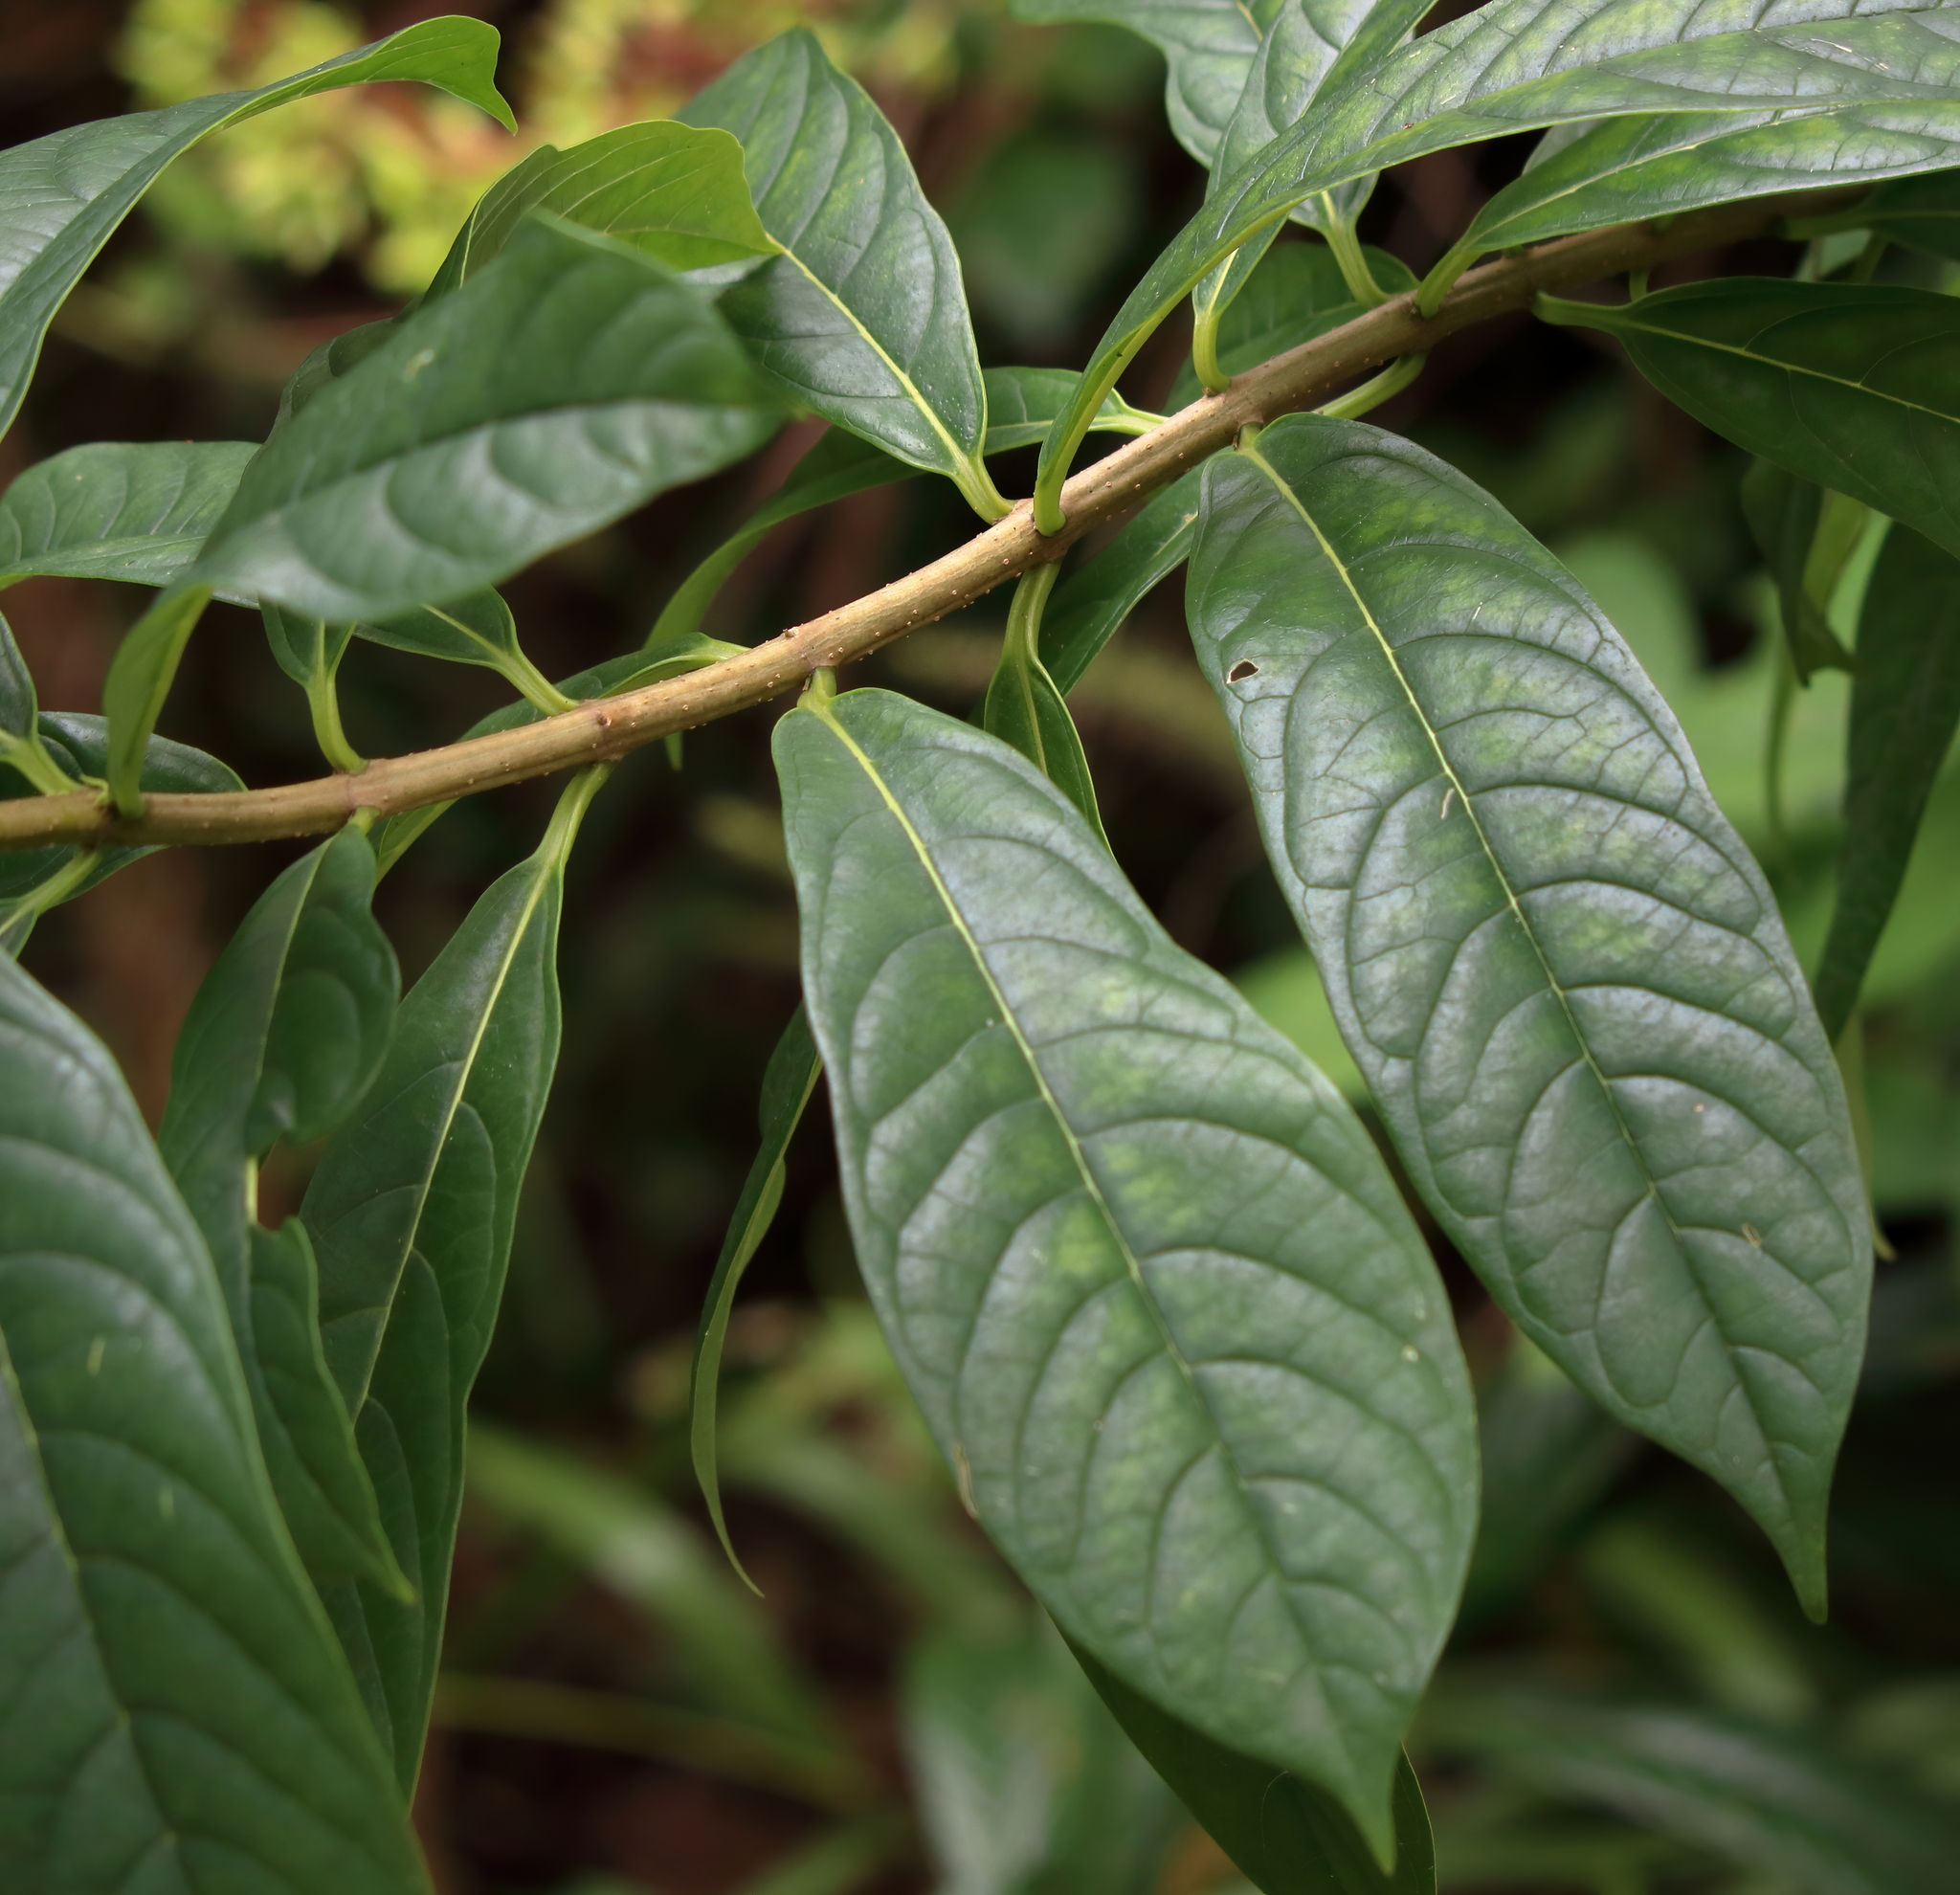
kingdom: Plantae
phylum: Tracheophyta
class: Magnoliopsida
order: Lamiales
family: Lamiaceae
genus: Clerodendrum
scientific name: Clerodendrum indicum
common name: Turk's turbin
